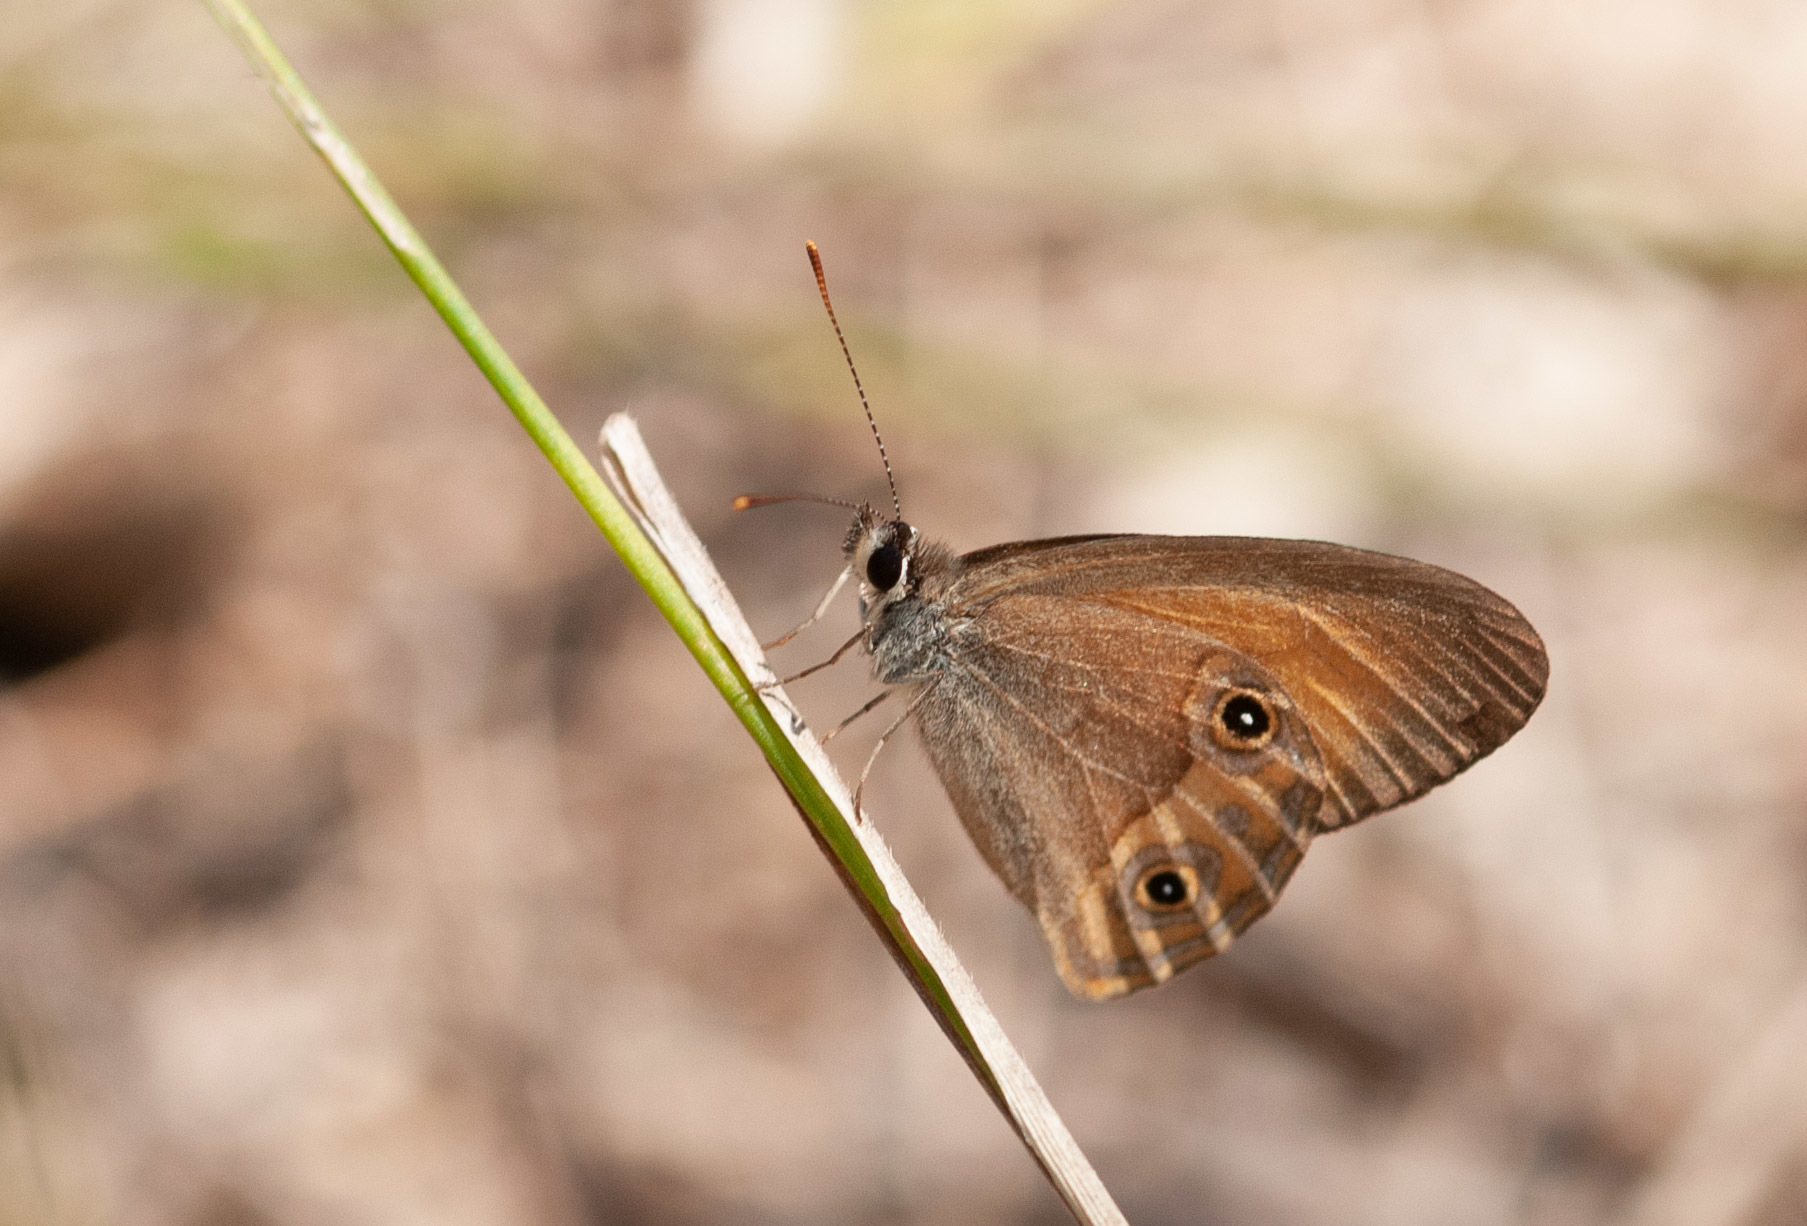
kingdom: Animalia
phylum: Arthropoda
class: Insecta
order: Lepidoptera
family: Nymphalidae
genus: Hypocysta
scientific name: Hypocysta metirius
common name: Brown ringlet
